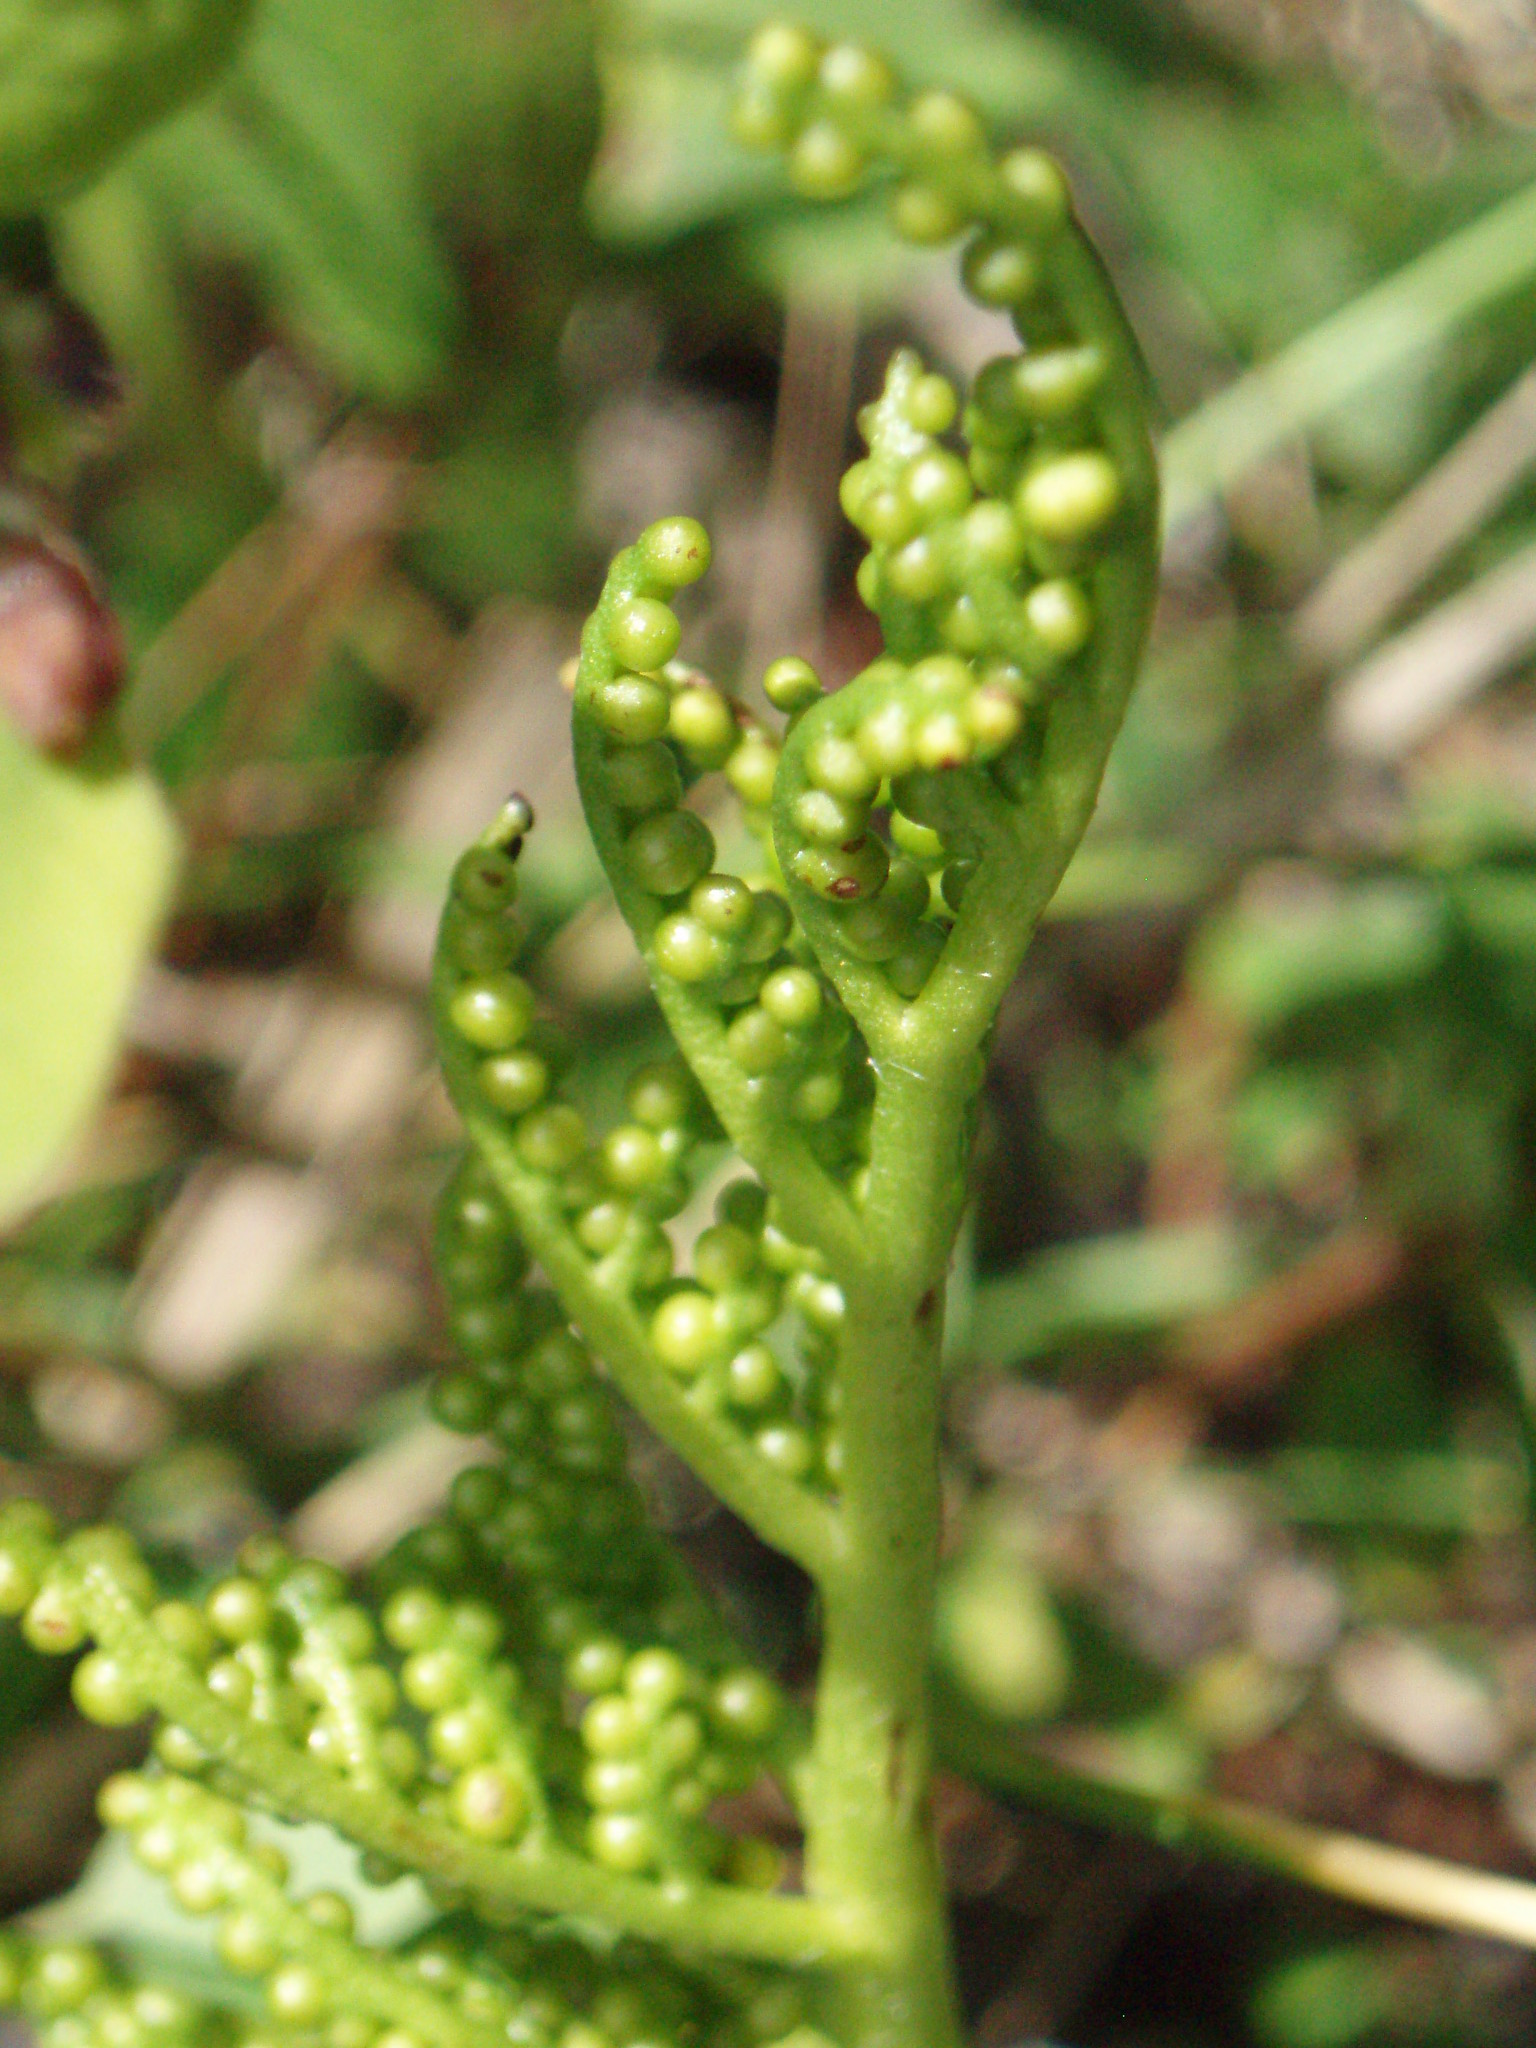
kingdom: Plantae
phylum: Tracheophyta
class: Polypodiopsida
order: Ophioglossales
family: Ophioglossaceae
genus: Sceptridium
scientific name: Sceptridium multifidum
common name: Leathery grape fern
